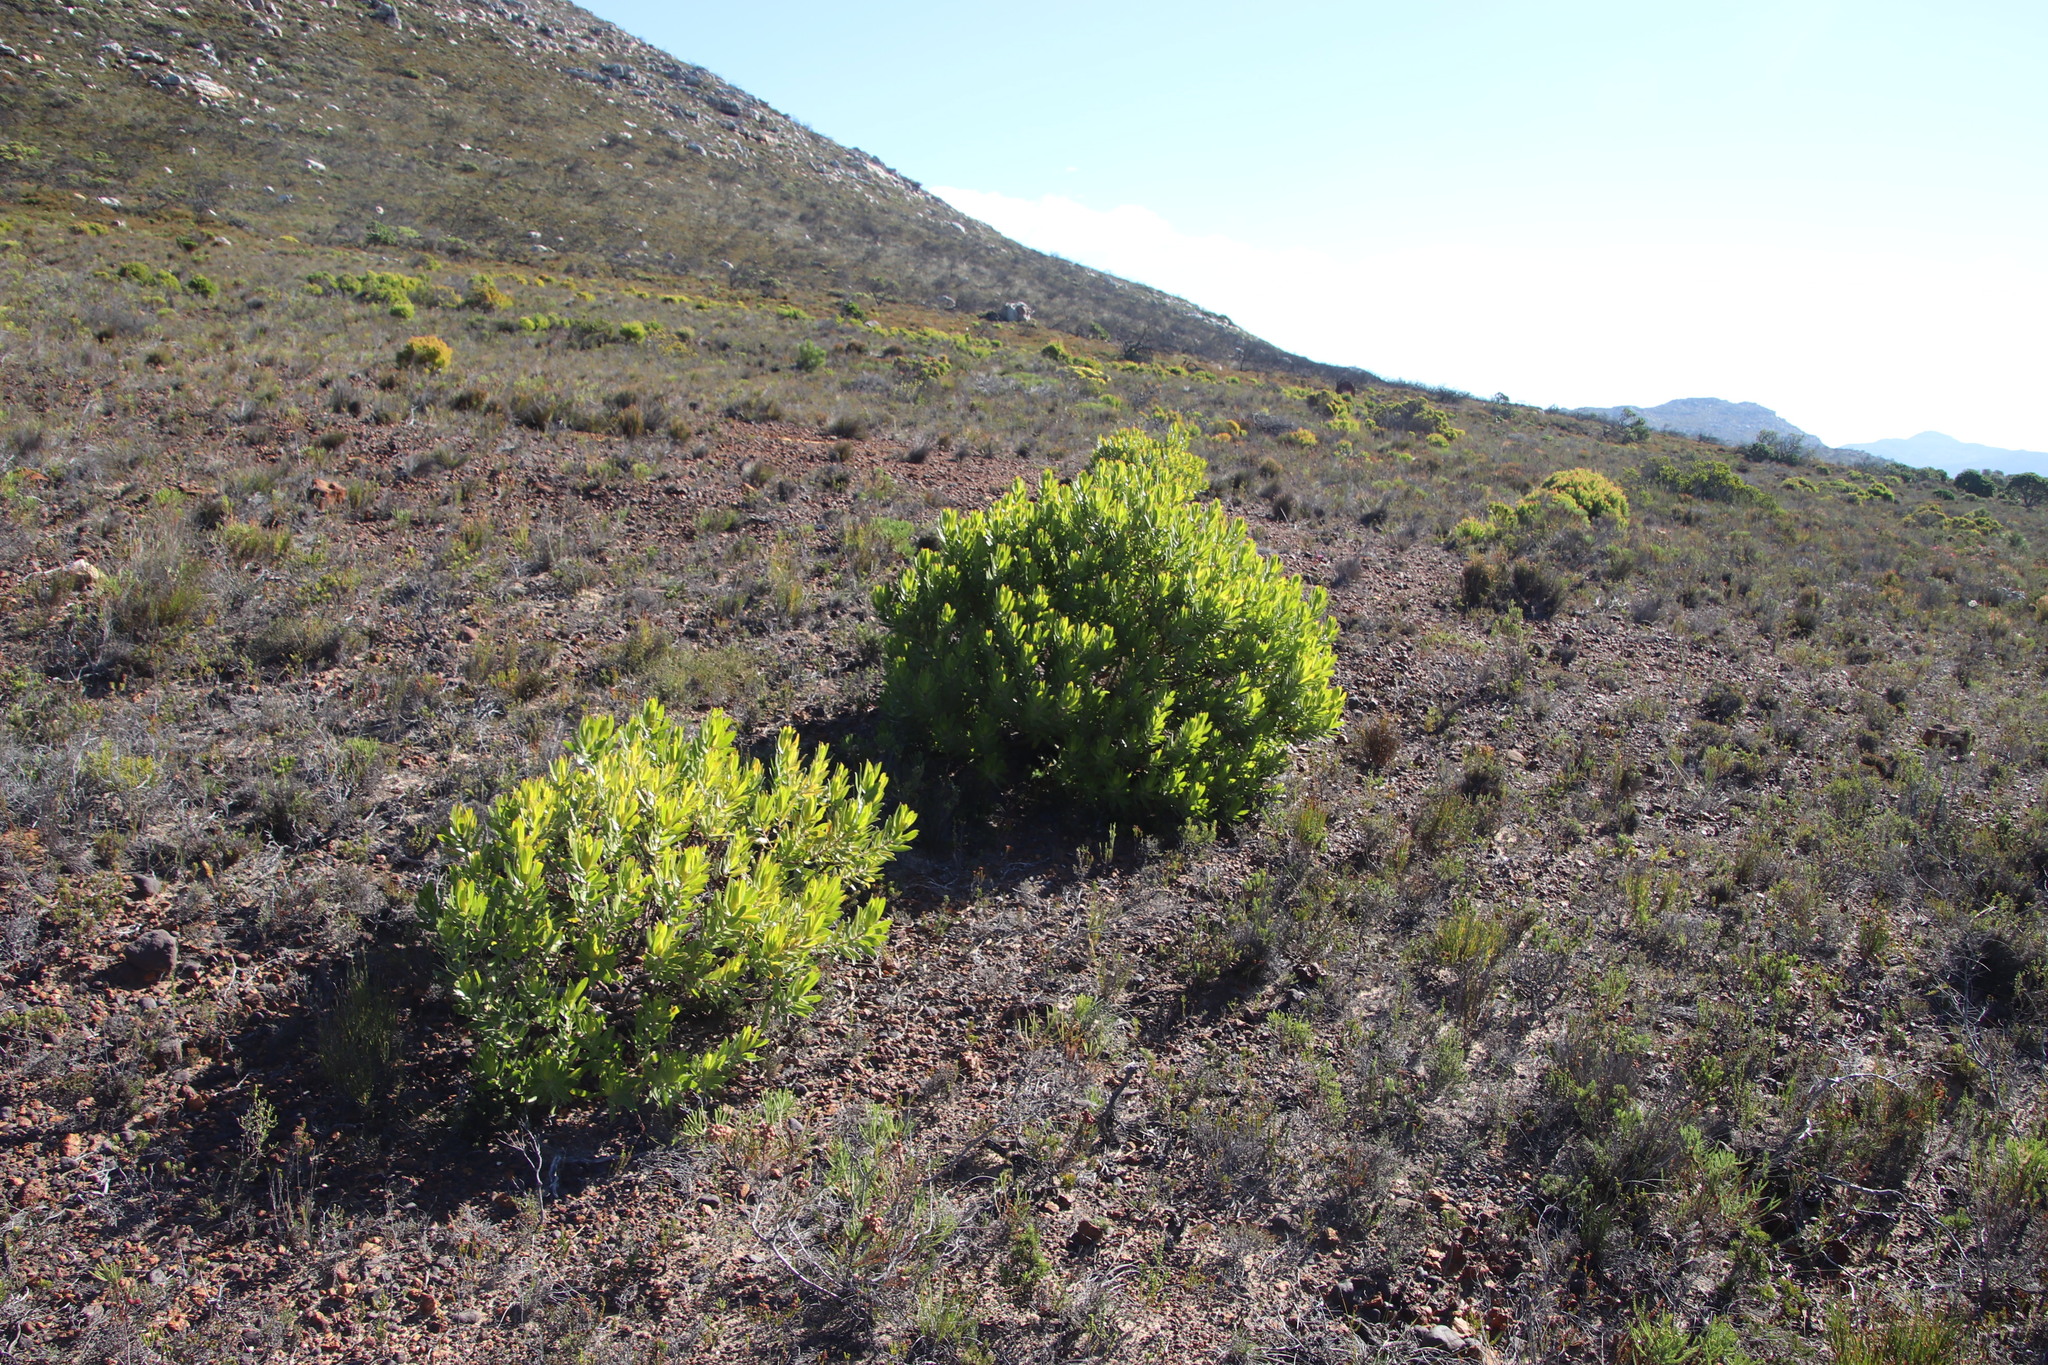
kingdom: Plantae
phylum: Tracheophyta
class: Magnoliopsida
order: Proteales
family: Proteaceae
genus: Leucadendron
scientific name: Leucadendron laureolum
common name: Golden sunshinebush
